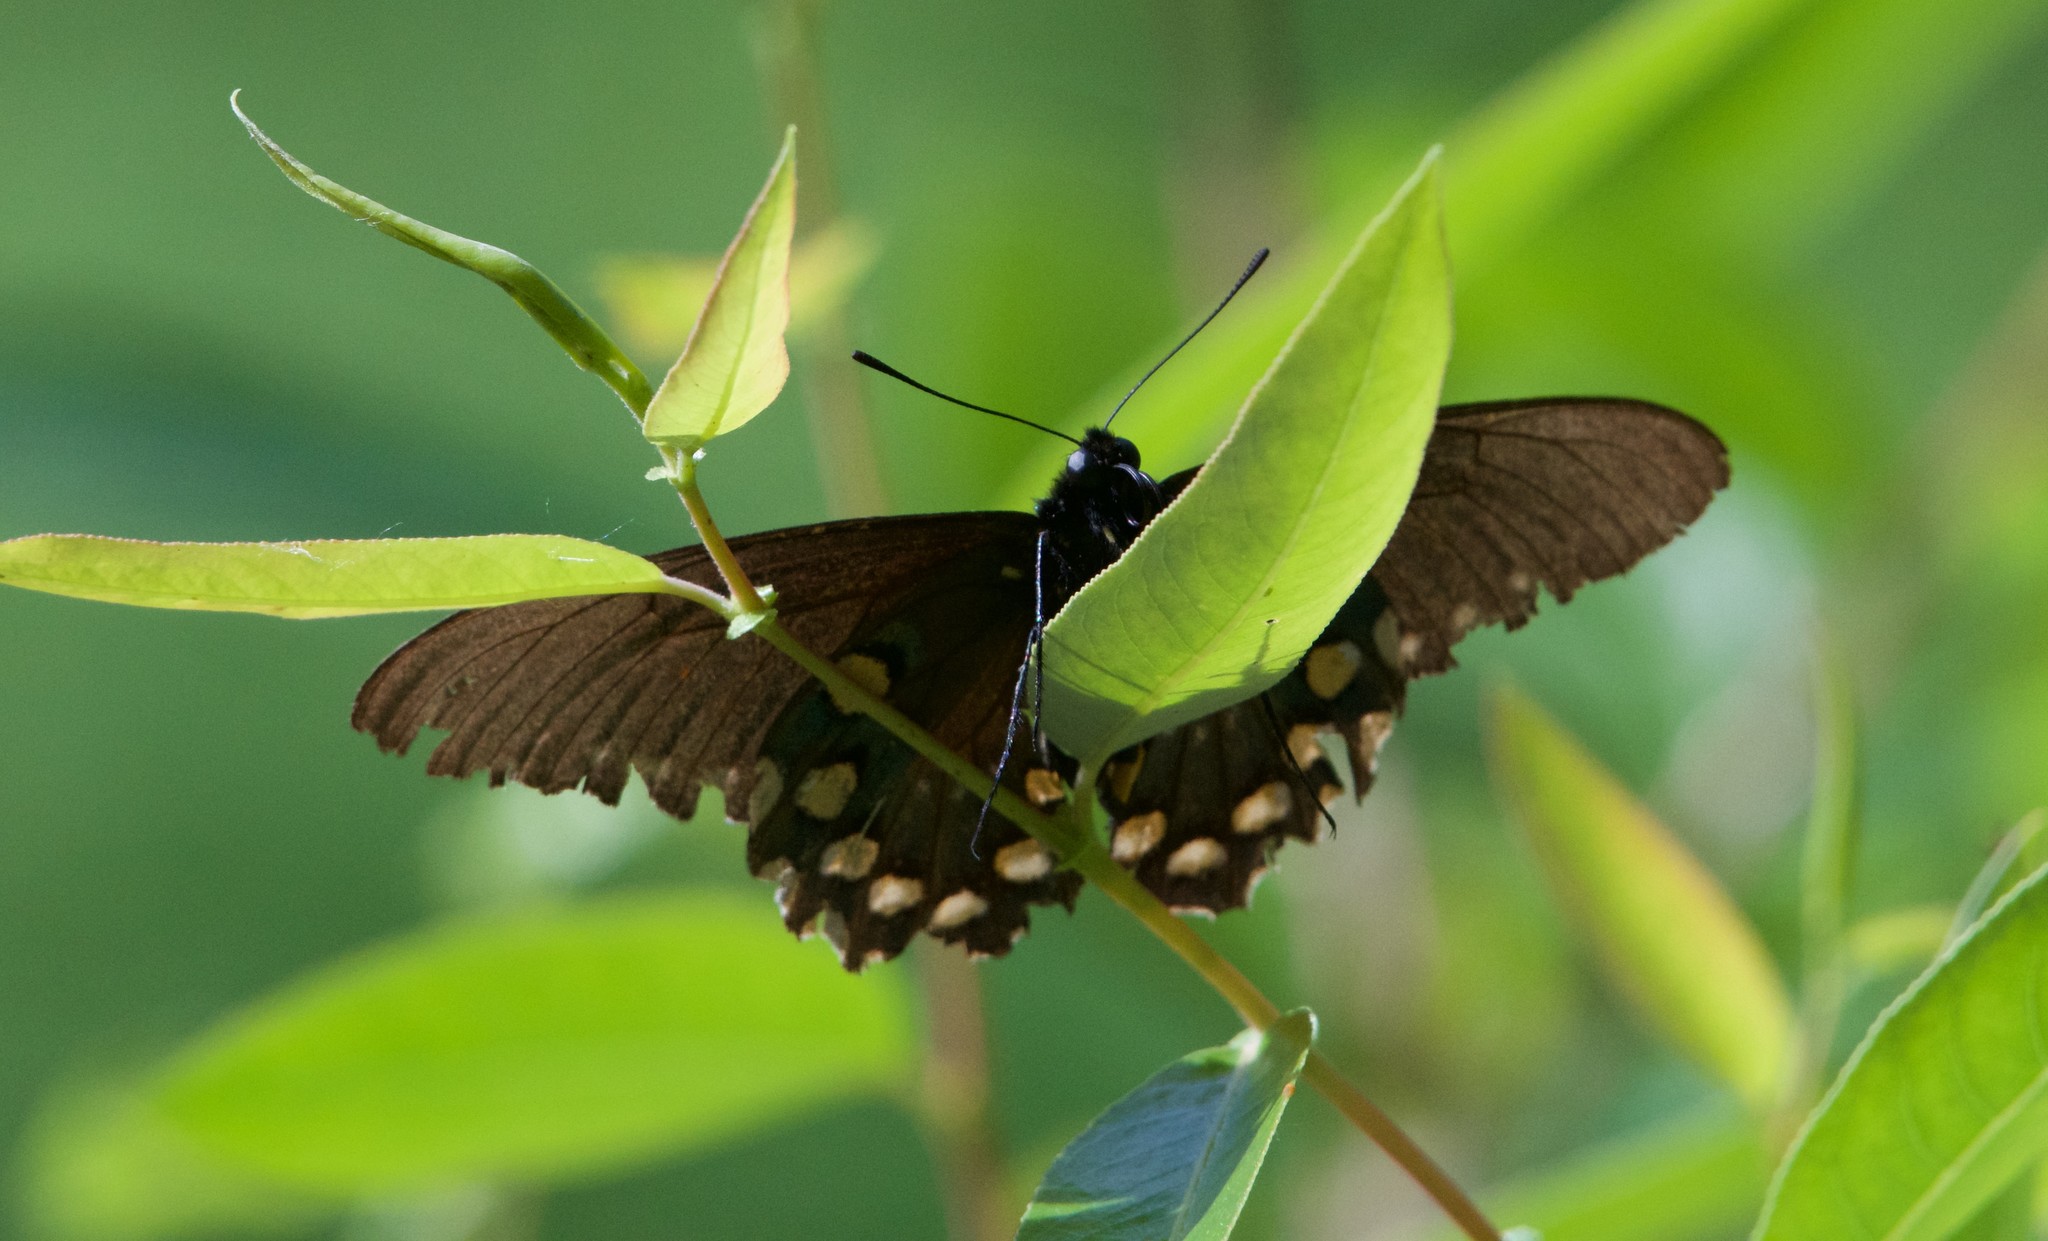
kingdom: Animalia
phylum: Arthropoda
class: Insecta
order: Lepidoptera
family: Papilionidae
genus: Battus
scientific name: Battus philenor
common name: Pipevine swallowtail
